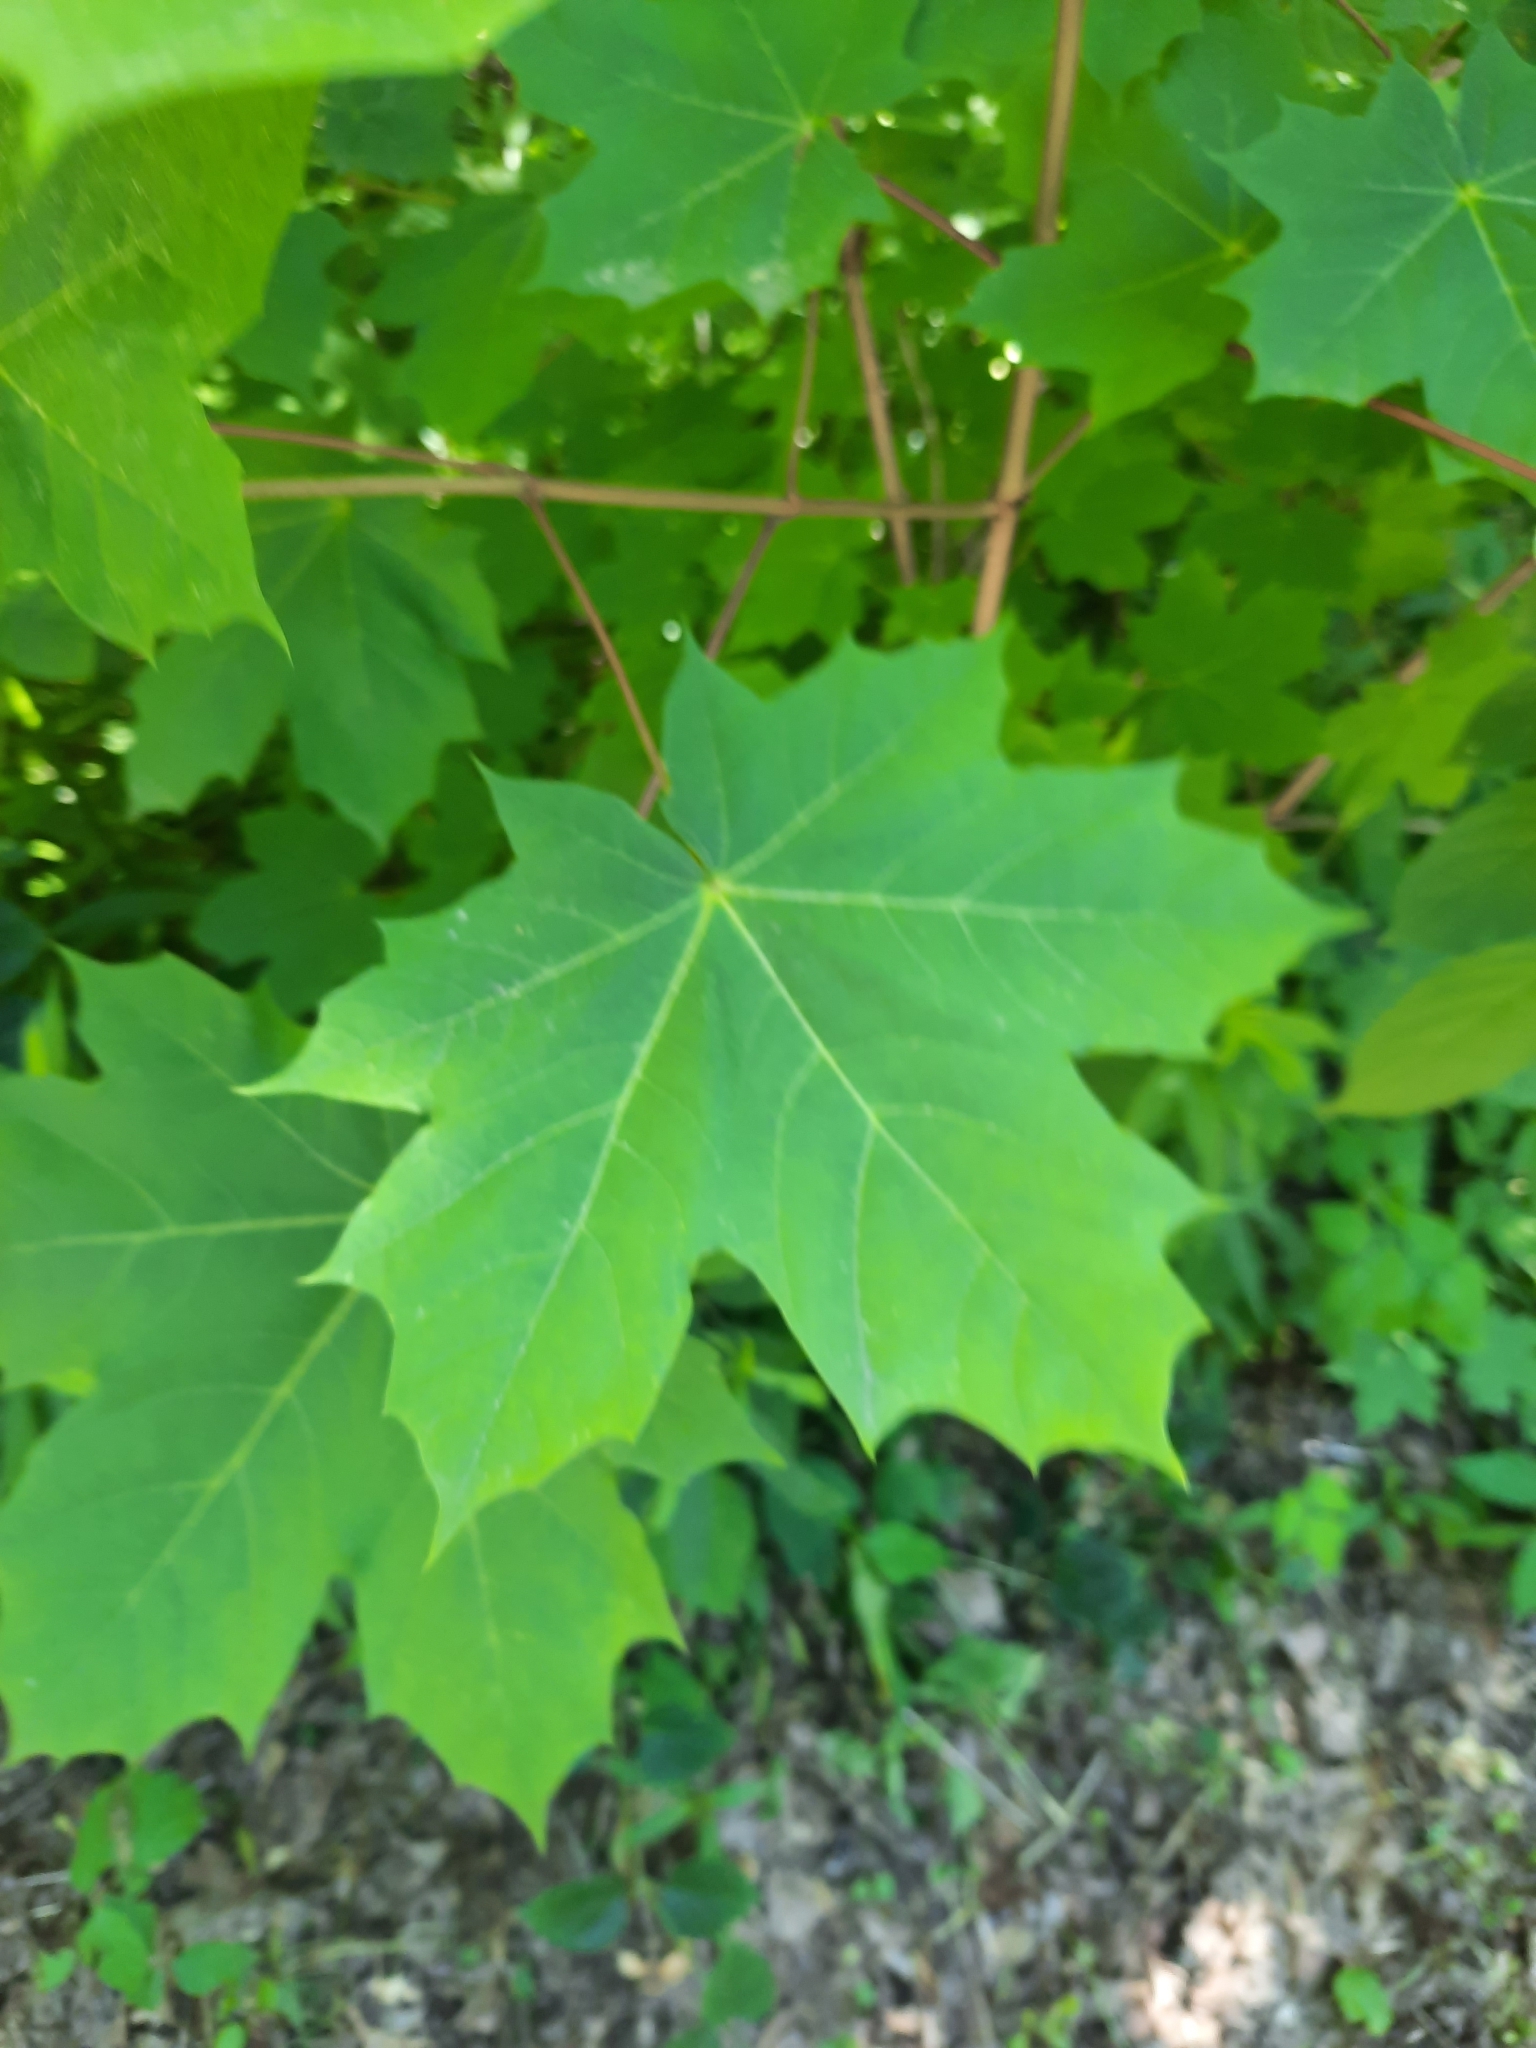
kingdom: Plantae
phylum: Tracheophyta
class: Magnoliopsida
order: Sapindales
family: Sapindaceae
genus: Acer
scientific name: Acer platanoides
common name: Norway maple
